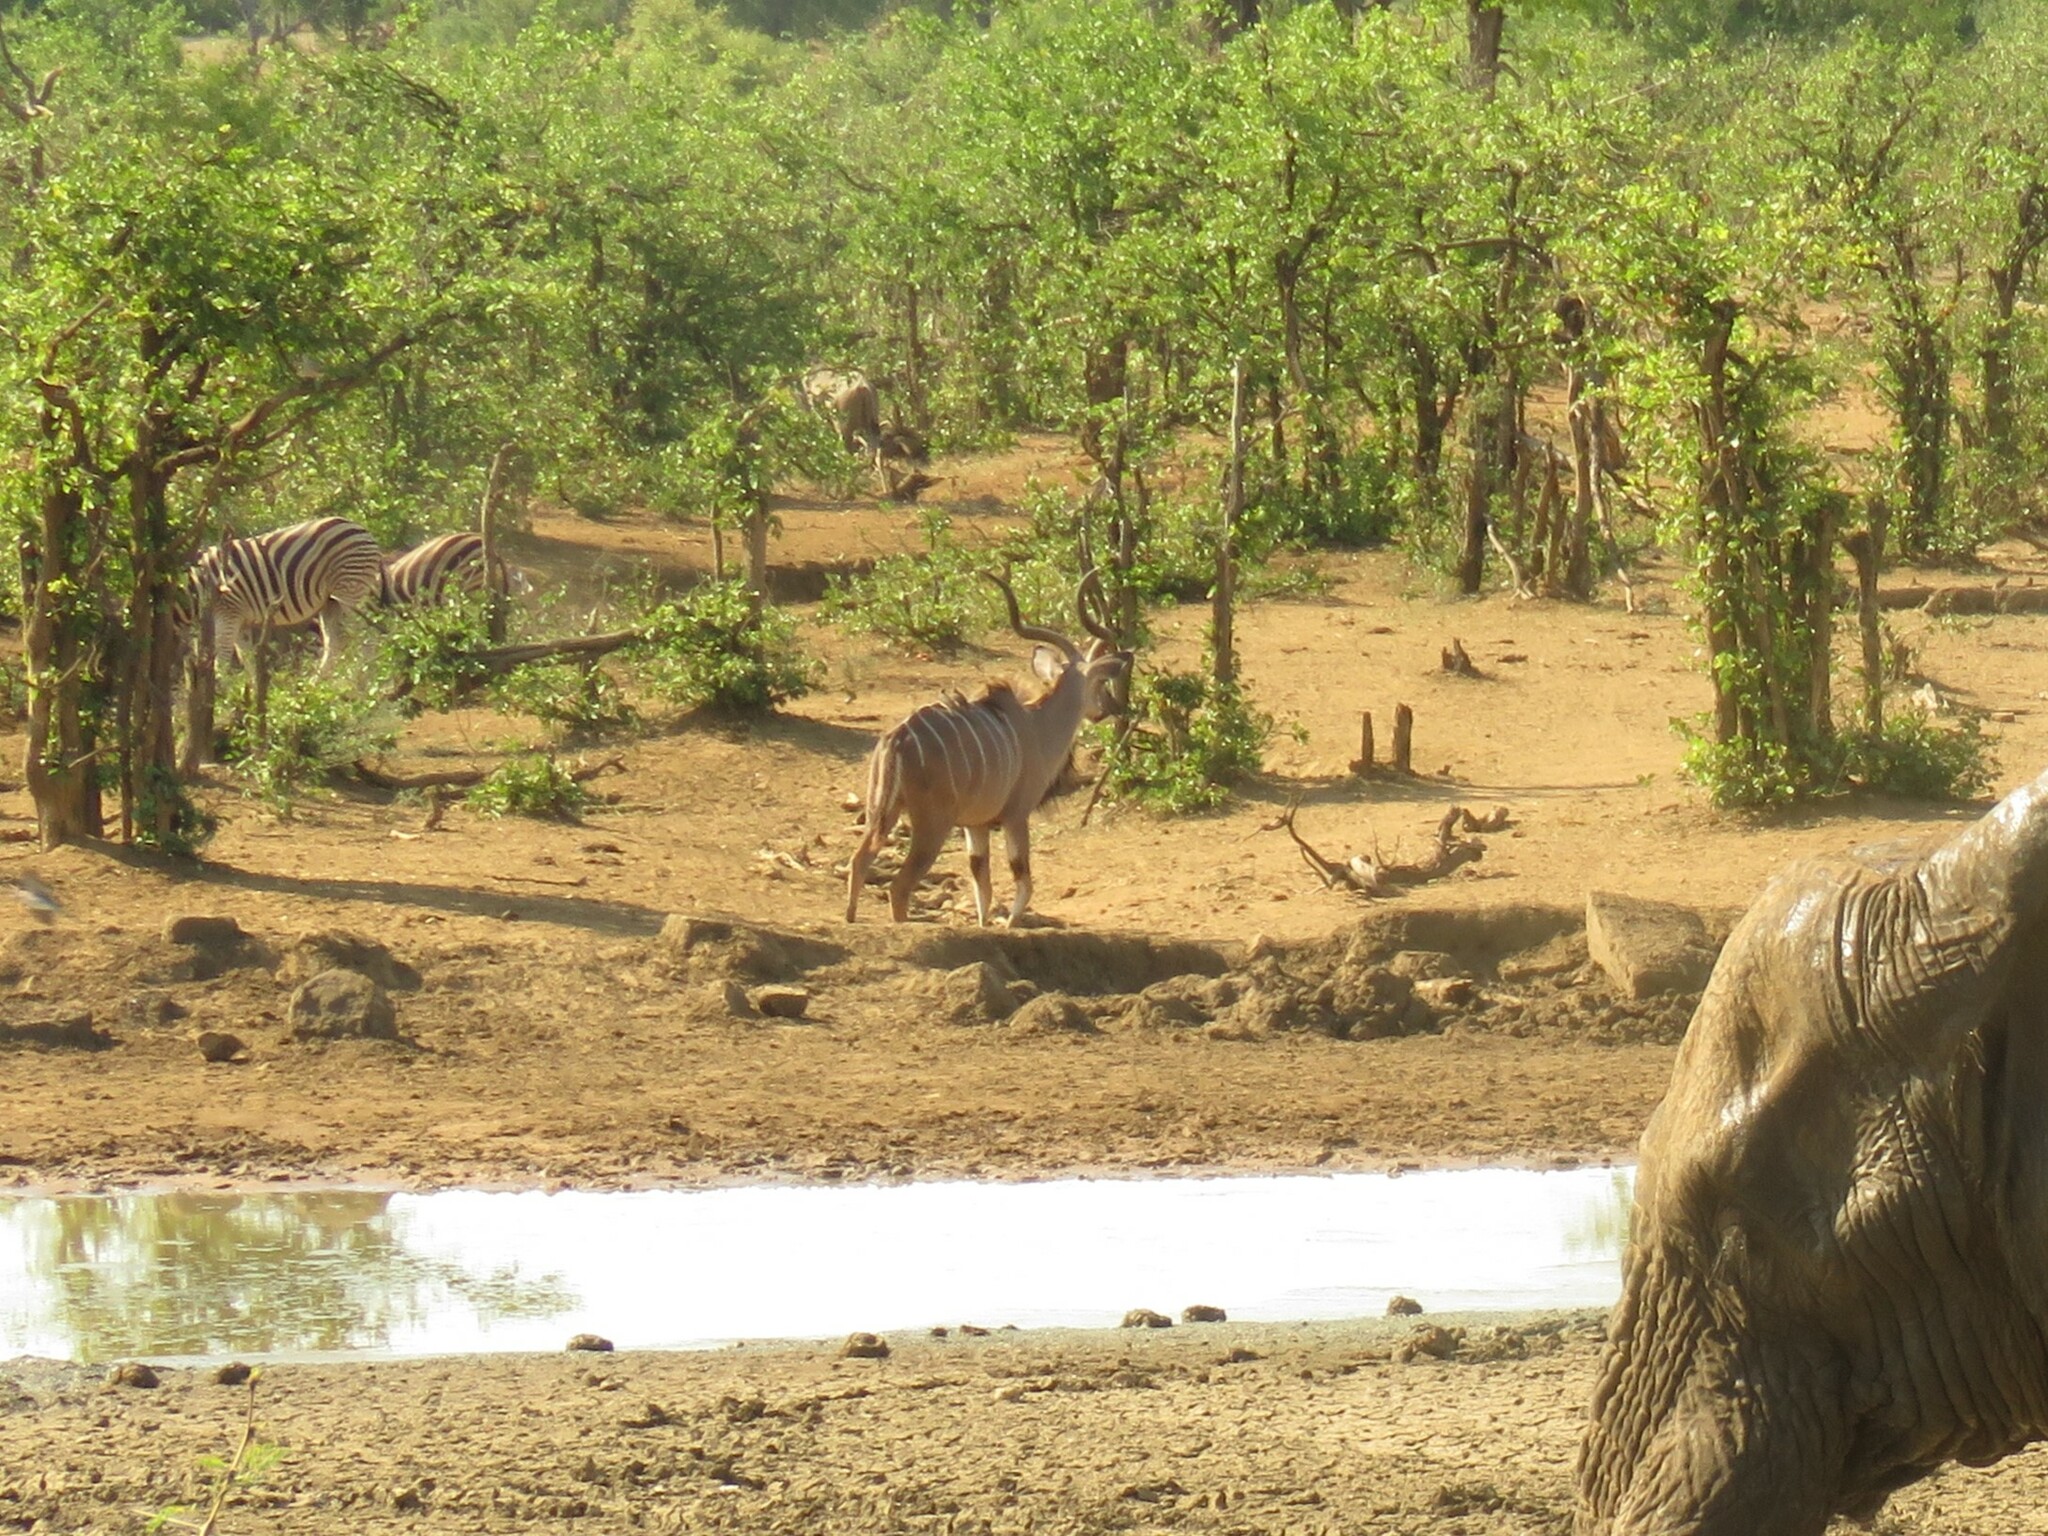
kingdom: Animalia
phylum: Chordata
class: Mammalia
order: Artiodactyla
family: Bovidae
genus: Tragelaphus
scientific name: Tragelaphus strepsiceros
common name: Greater kudu
